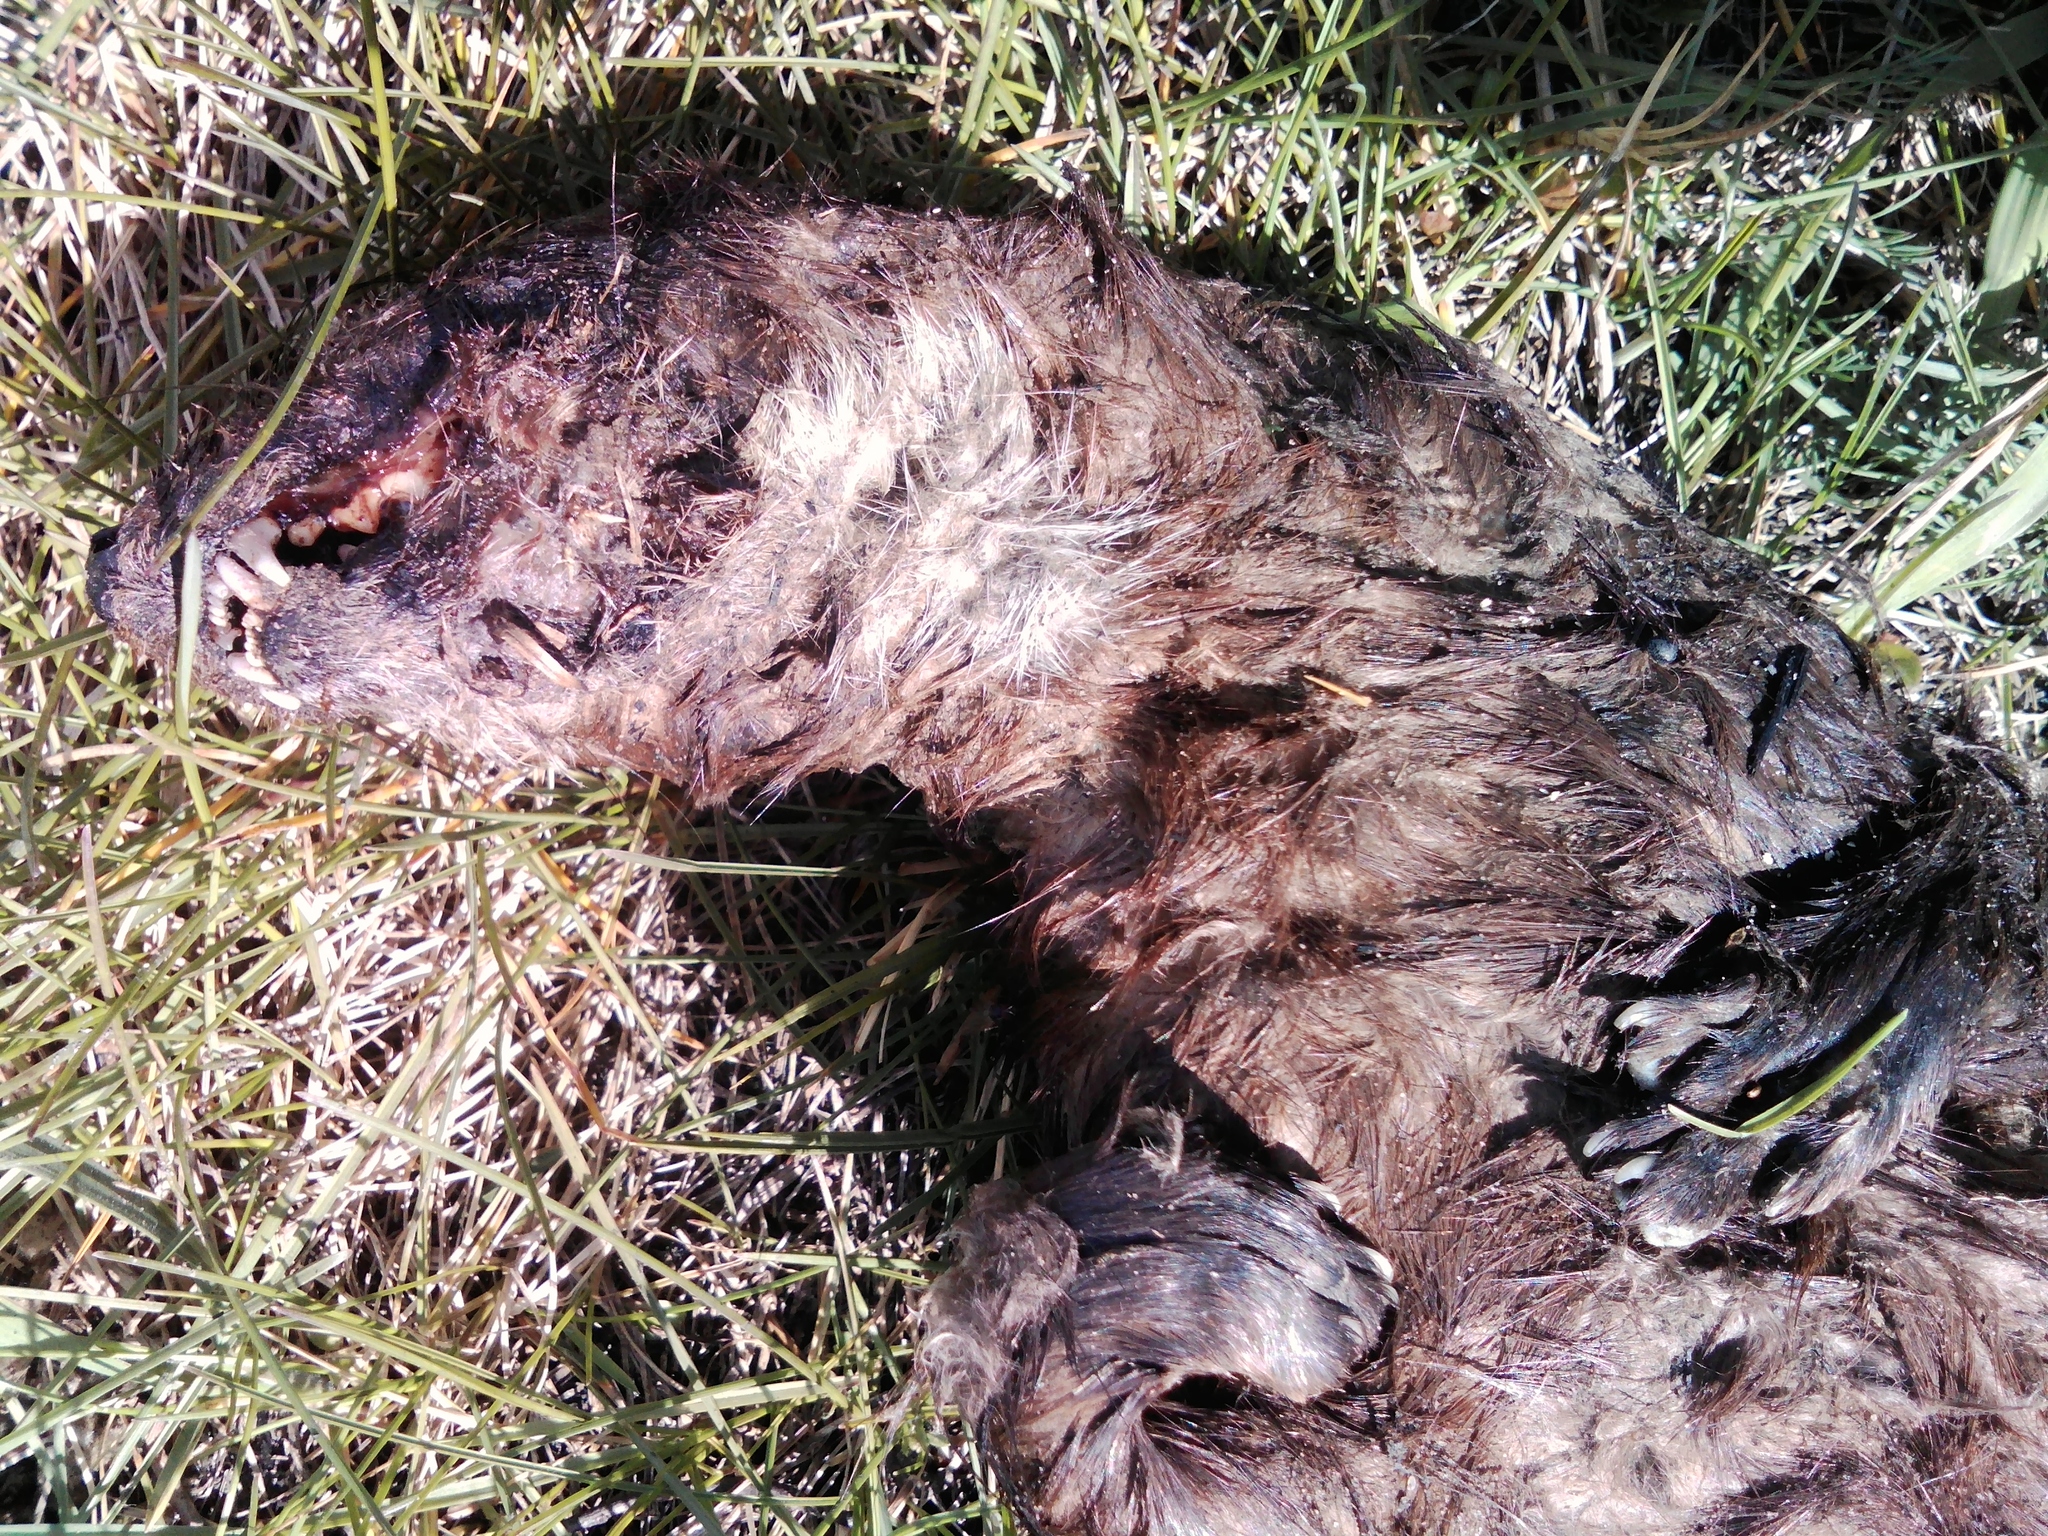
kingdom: Animalia
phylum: Chordata
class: Mammalia
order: Carnivora
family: Mustelidae
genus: Lutra
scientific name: Lutra lutra
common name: European otter
